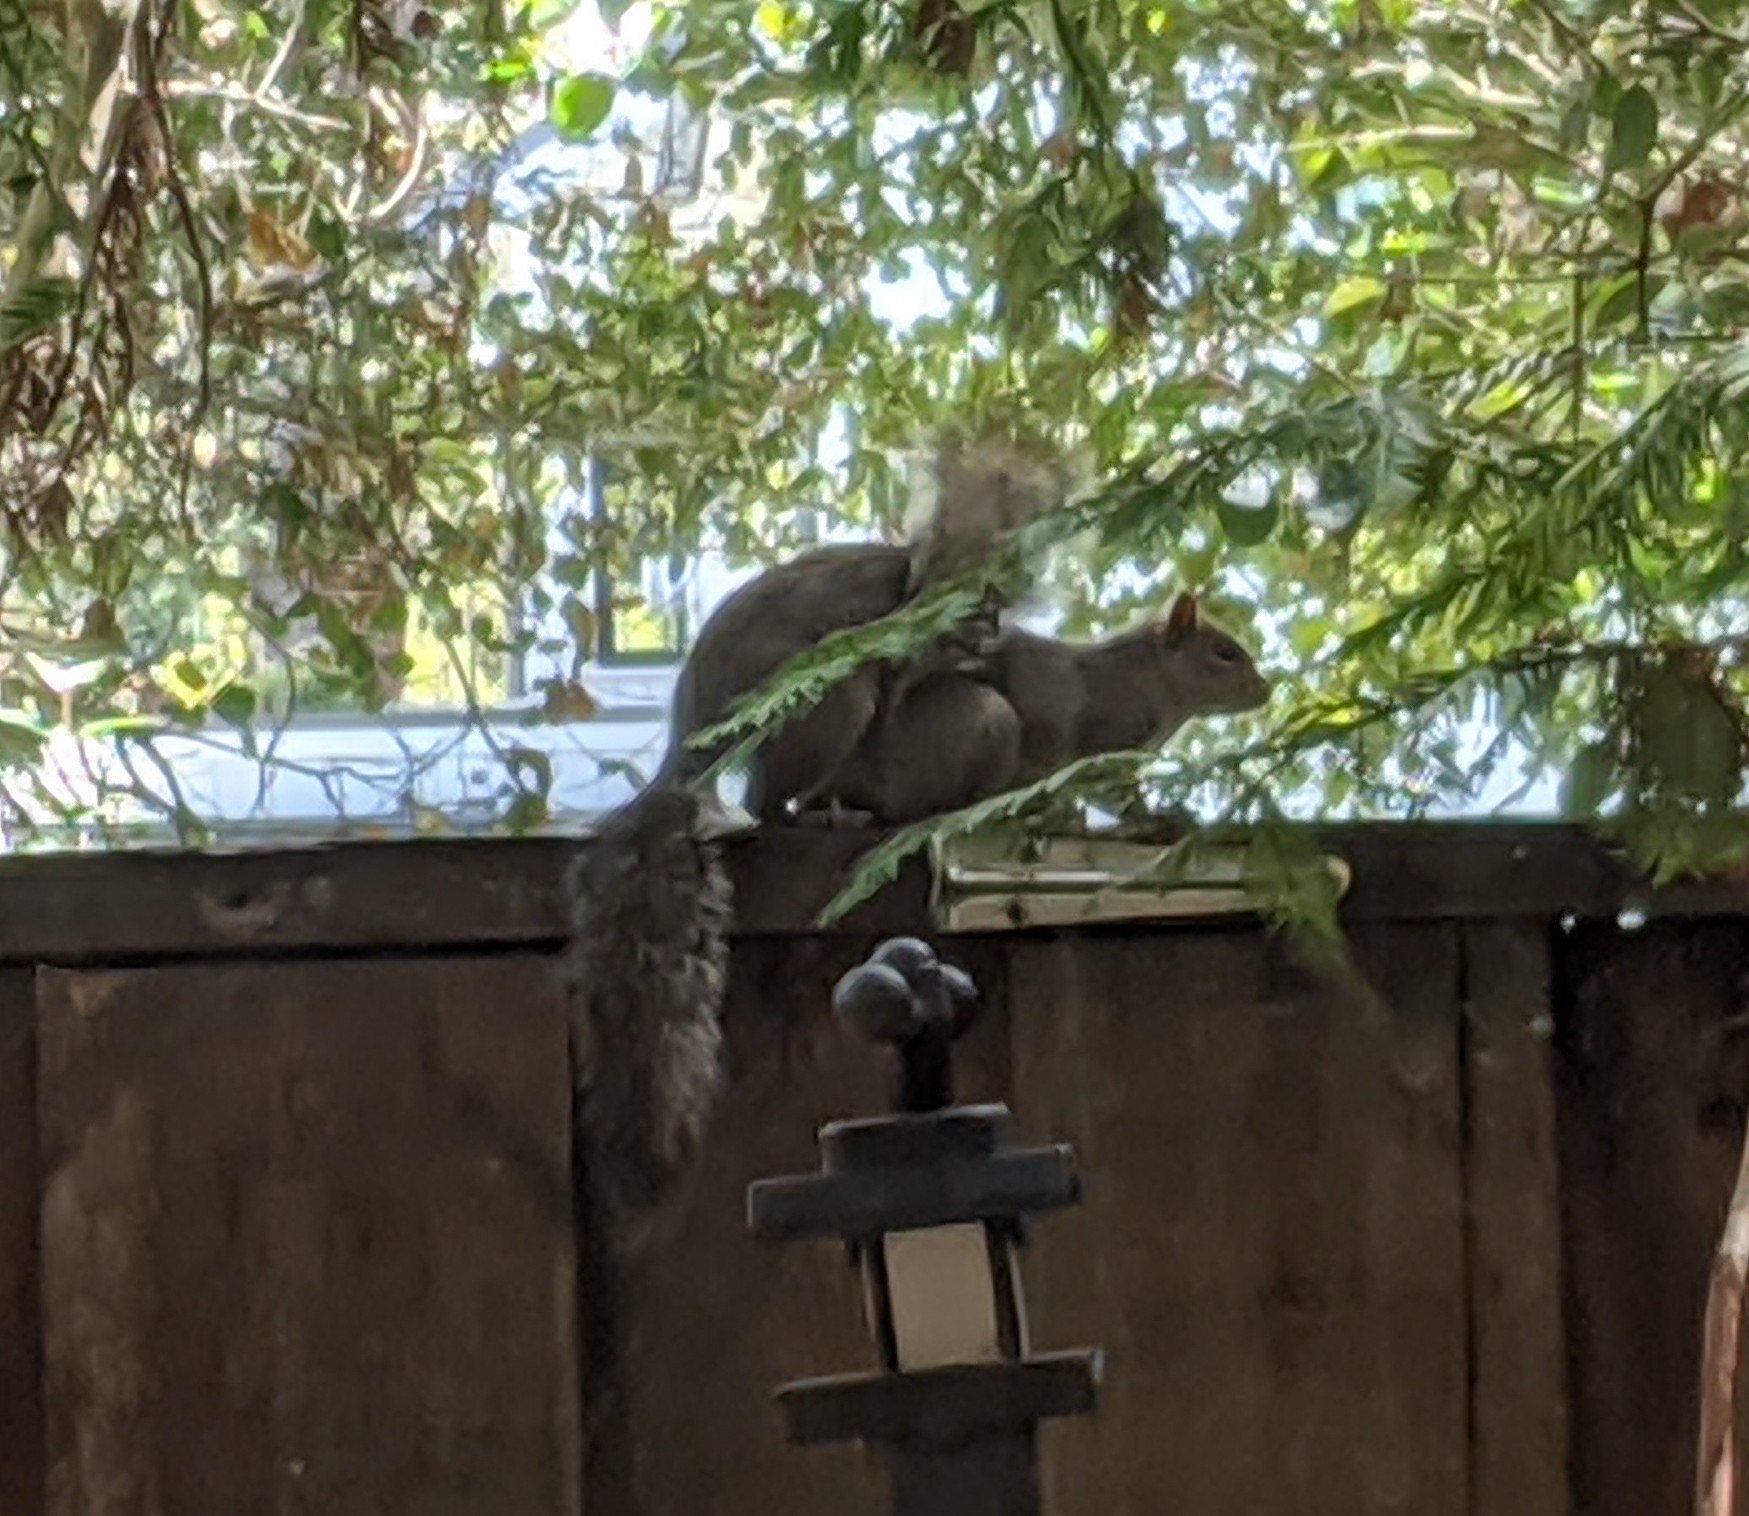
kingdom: Animalia
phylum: Chordata
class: Mammalia
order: Rodentia
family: Sciuridae
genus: Sciurus
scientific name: Sciurus carolinensis
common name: Eastern gray squirrel
